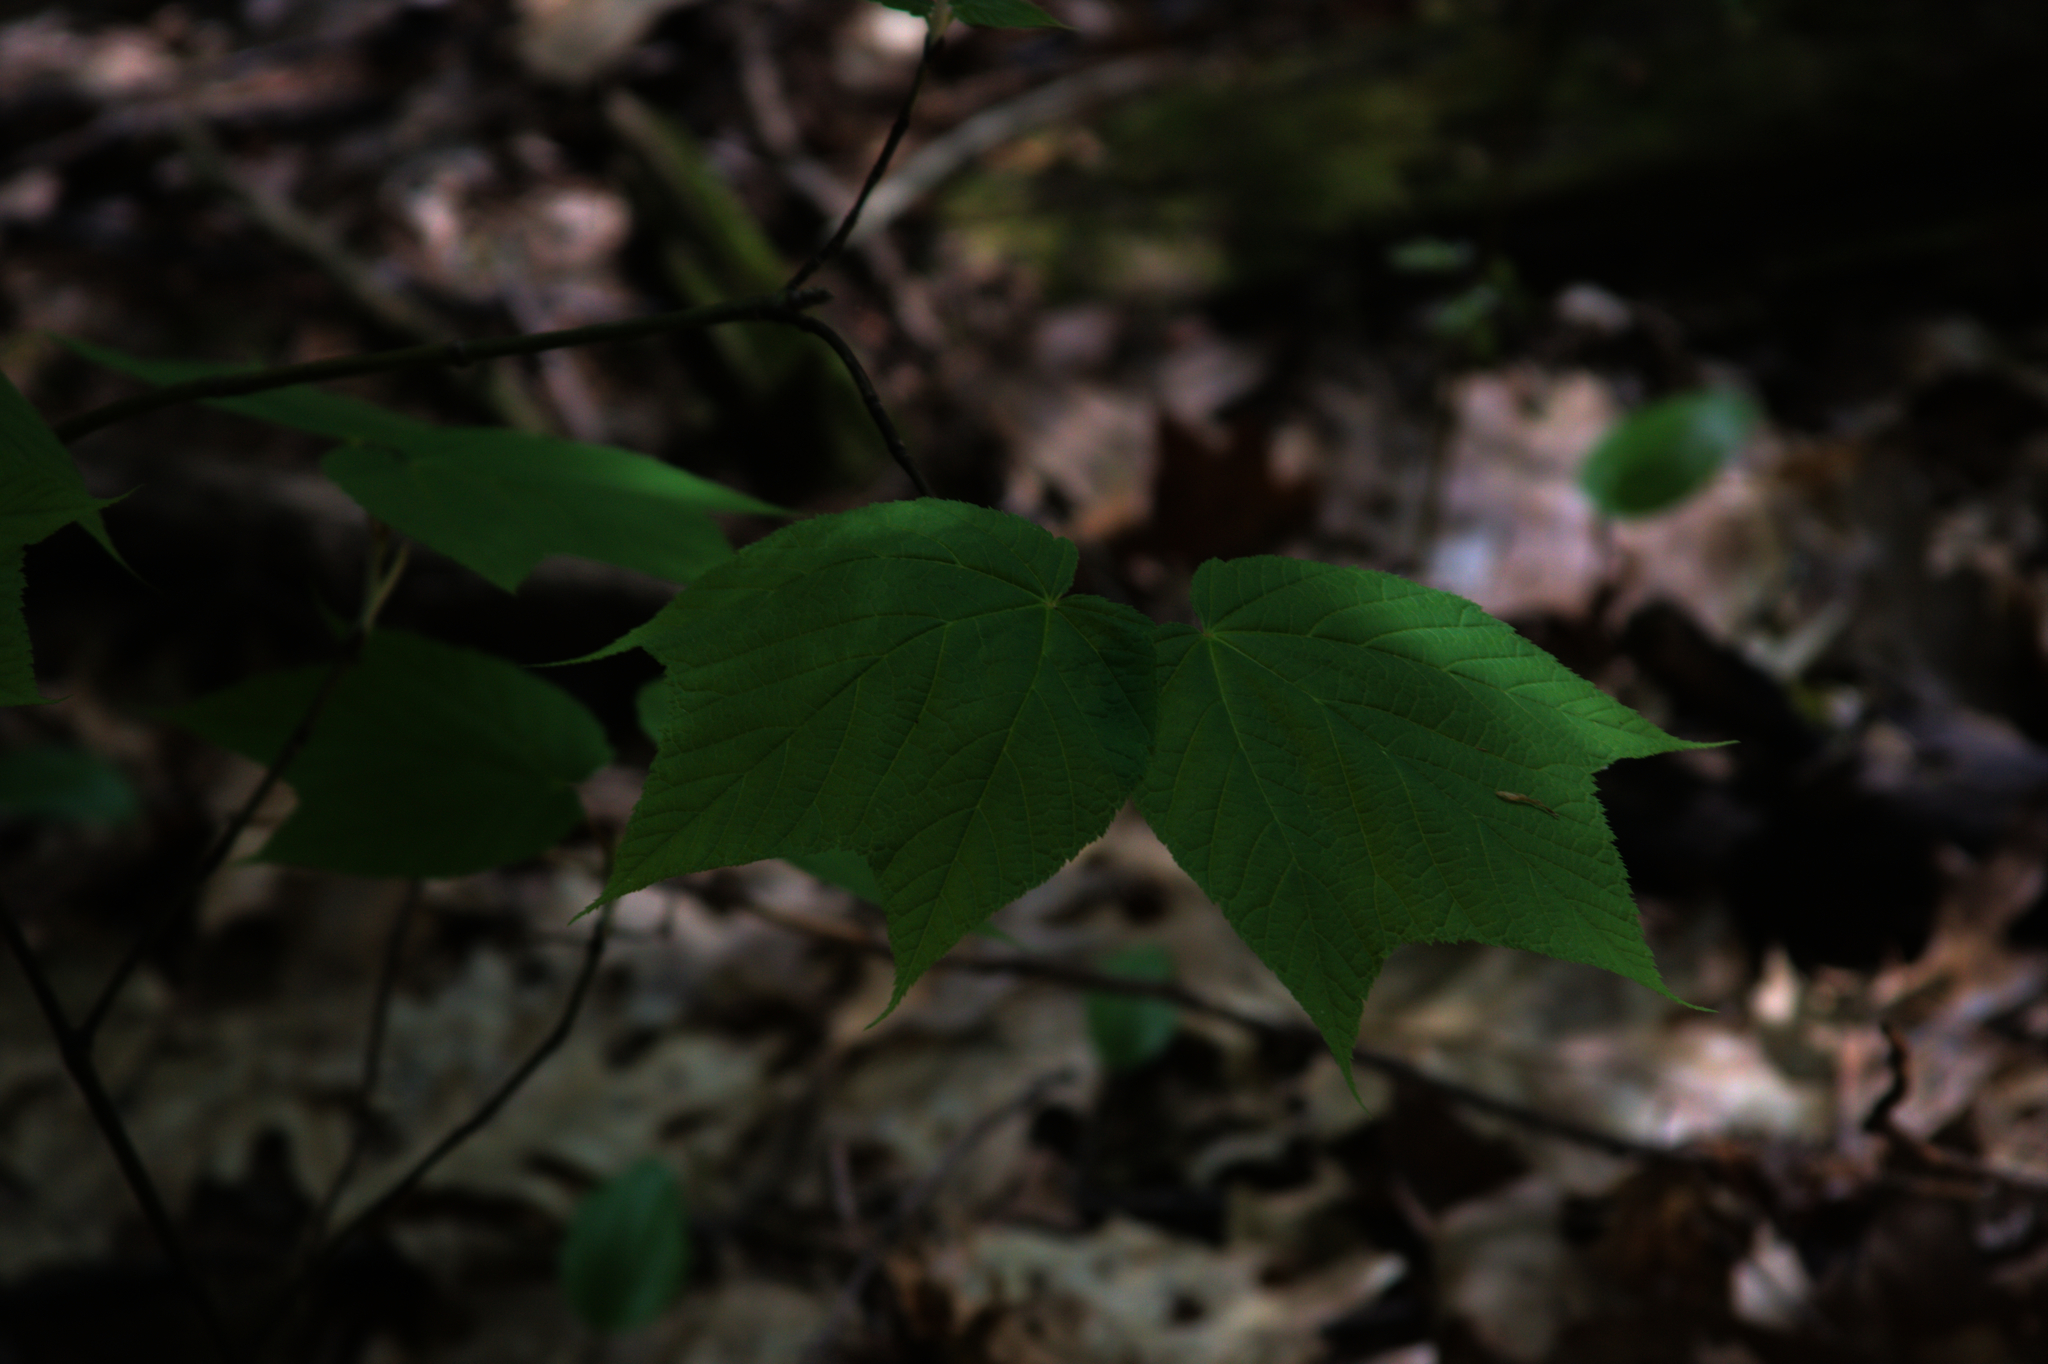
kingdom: Plantae
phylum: Tracheophyta
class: Magnoliopsida
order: Sapindales
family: Sapindaceae
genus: Acer
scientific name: Acer pensylvanicum
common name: Moosewood
